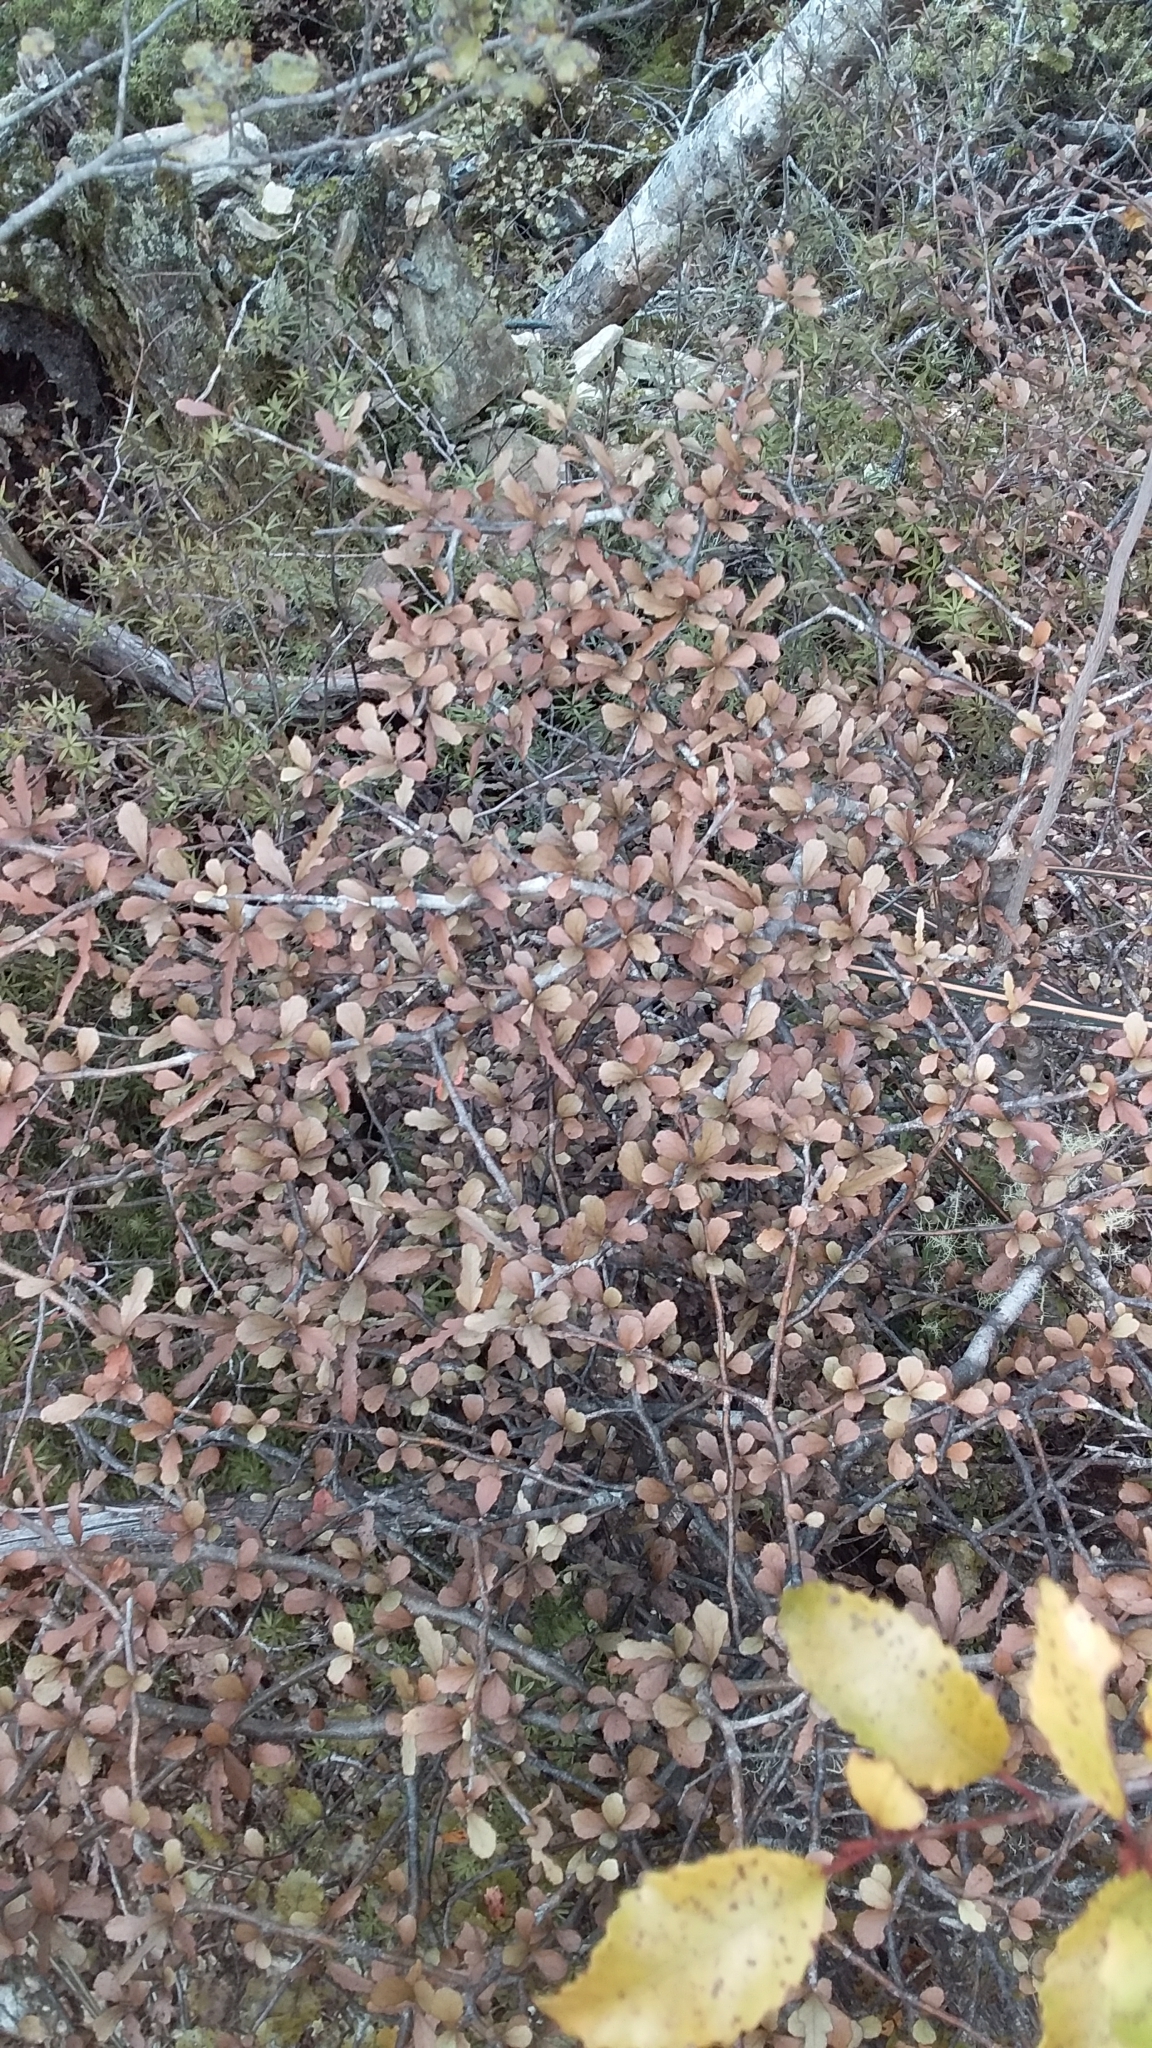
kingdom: Plantae
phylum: Tracheophyta
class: Magnoliopsida
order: Oxalidales
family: Elaeocarpaceae
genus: Elaeocarpus
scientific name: Elaeocarpus hookerianus
